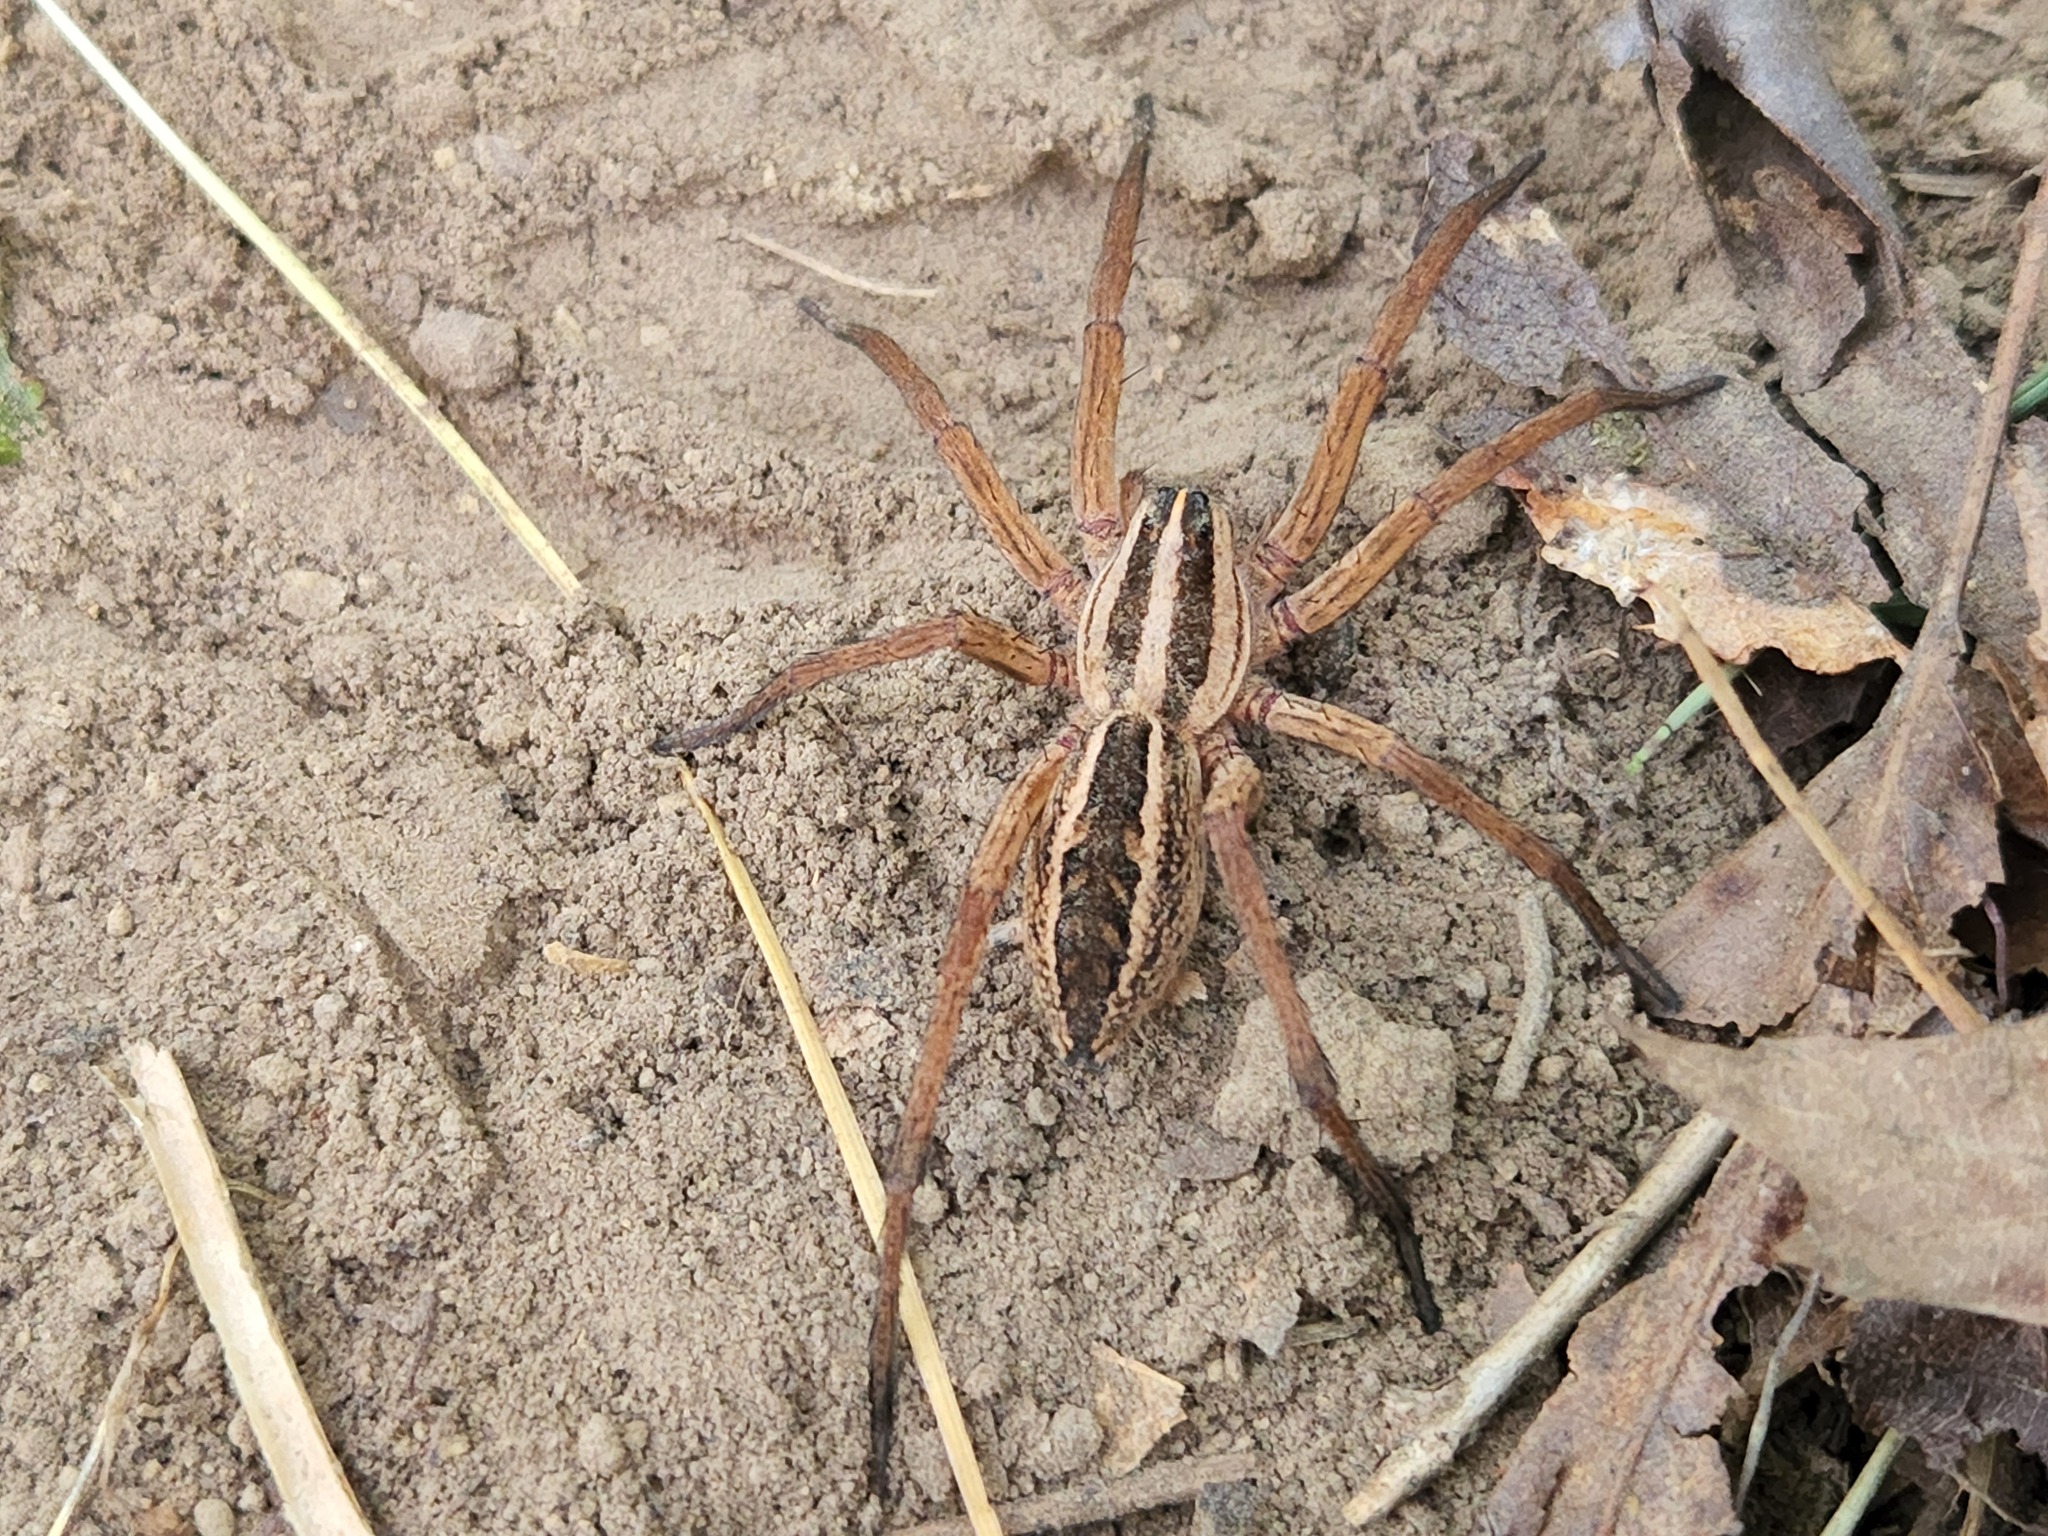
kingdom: Animalia
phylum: Arthropoda
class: Arachnida
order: Araneae
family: Lycosidae
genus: Rabidosa
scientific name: Rabidosa rabida
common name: Rabid wolf spider
